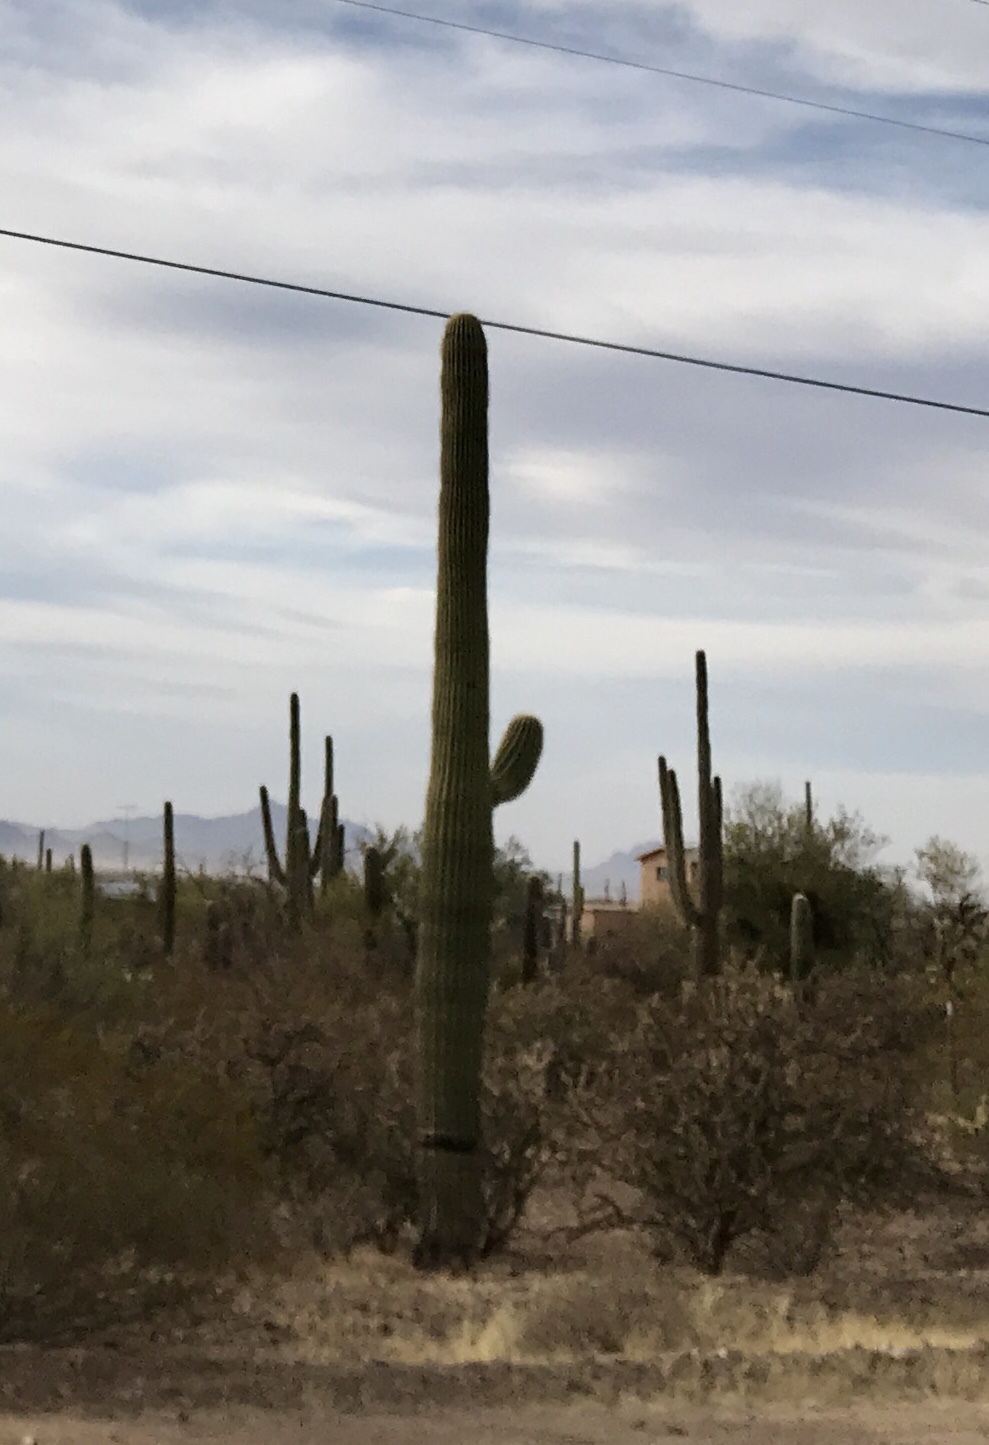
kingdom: Plantae
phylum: Tracheophyta
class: Magnoliopsida
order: Caryophyllales
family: Cactaceae
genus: Carnegiea
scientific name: Carnegiea gigantea
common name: Saguaro
